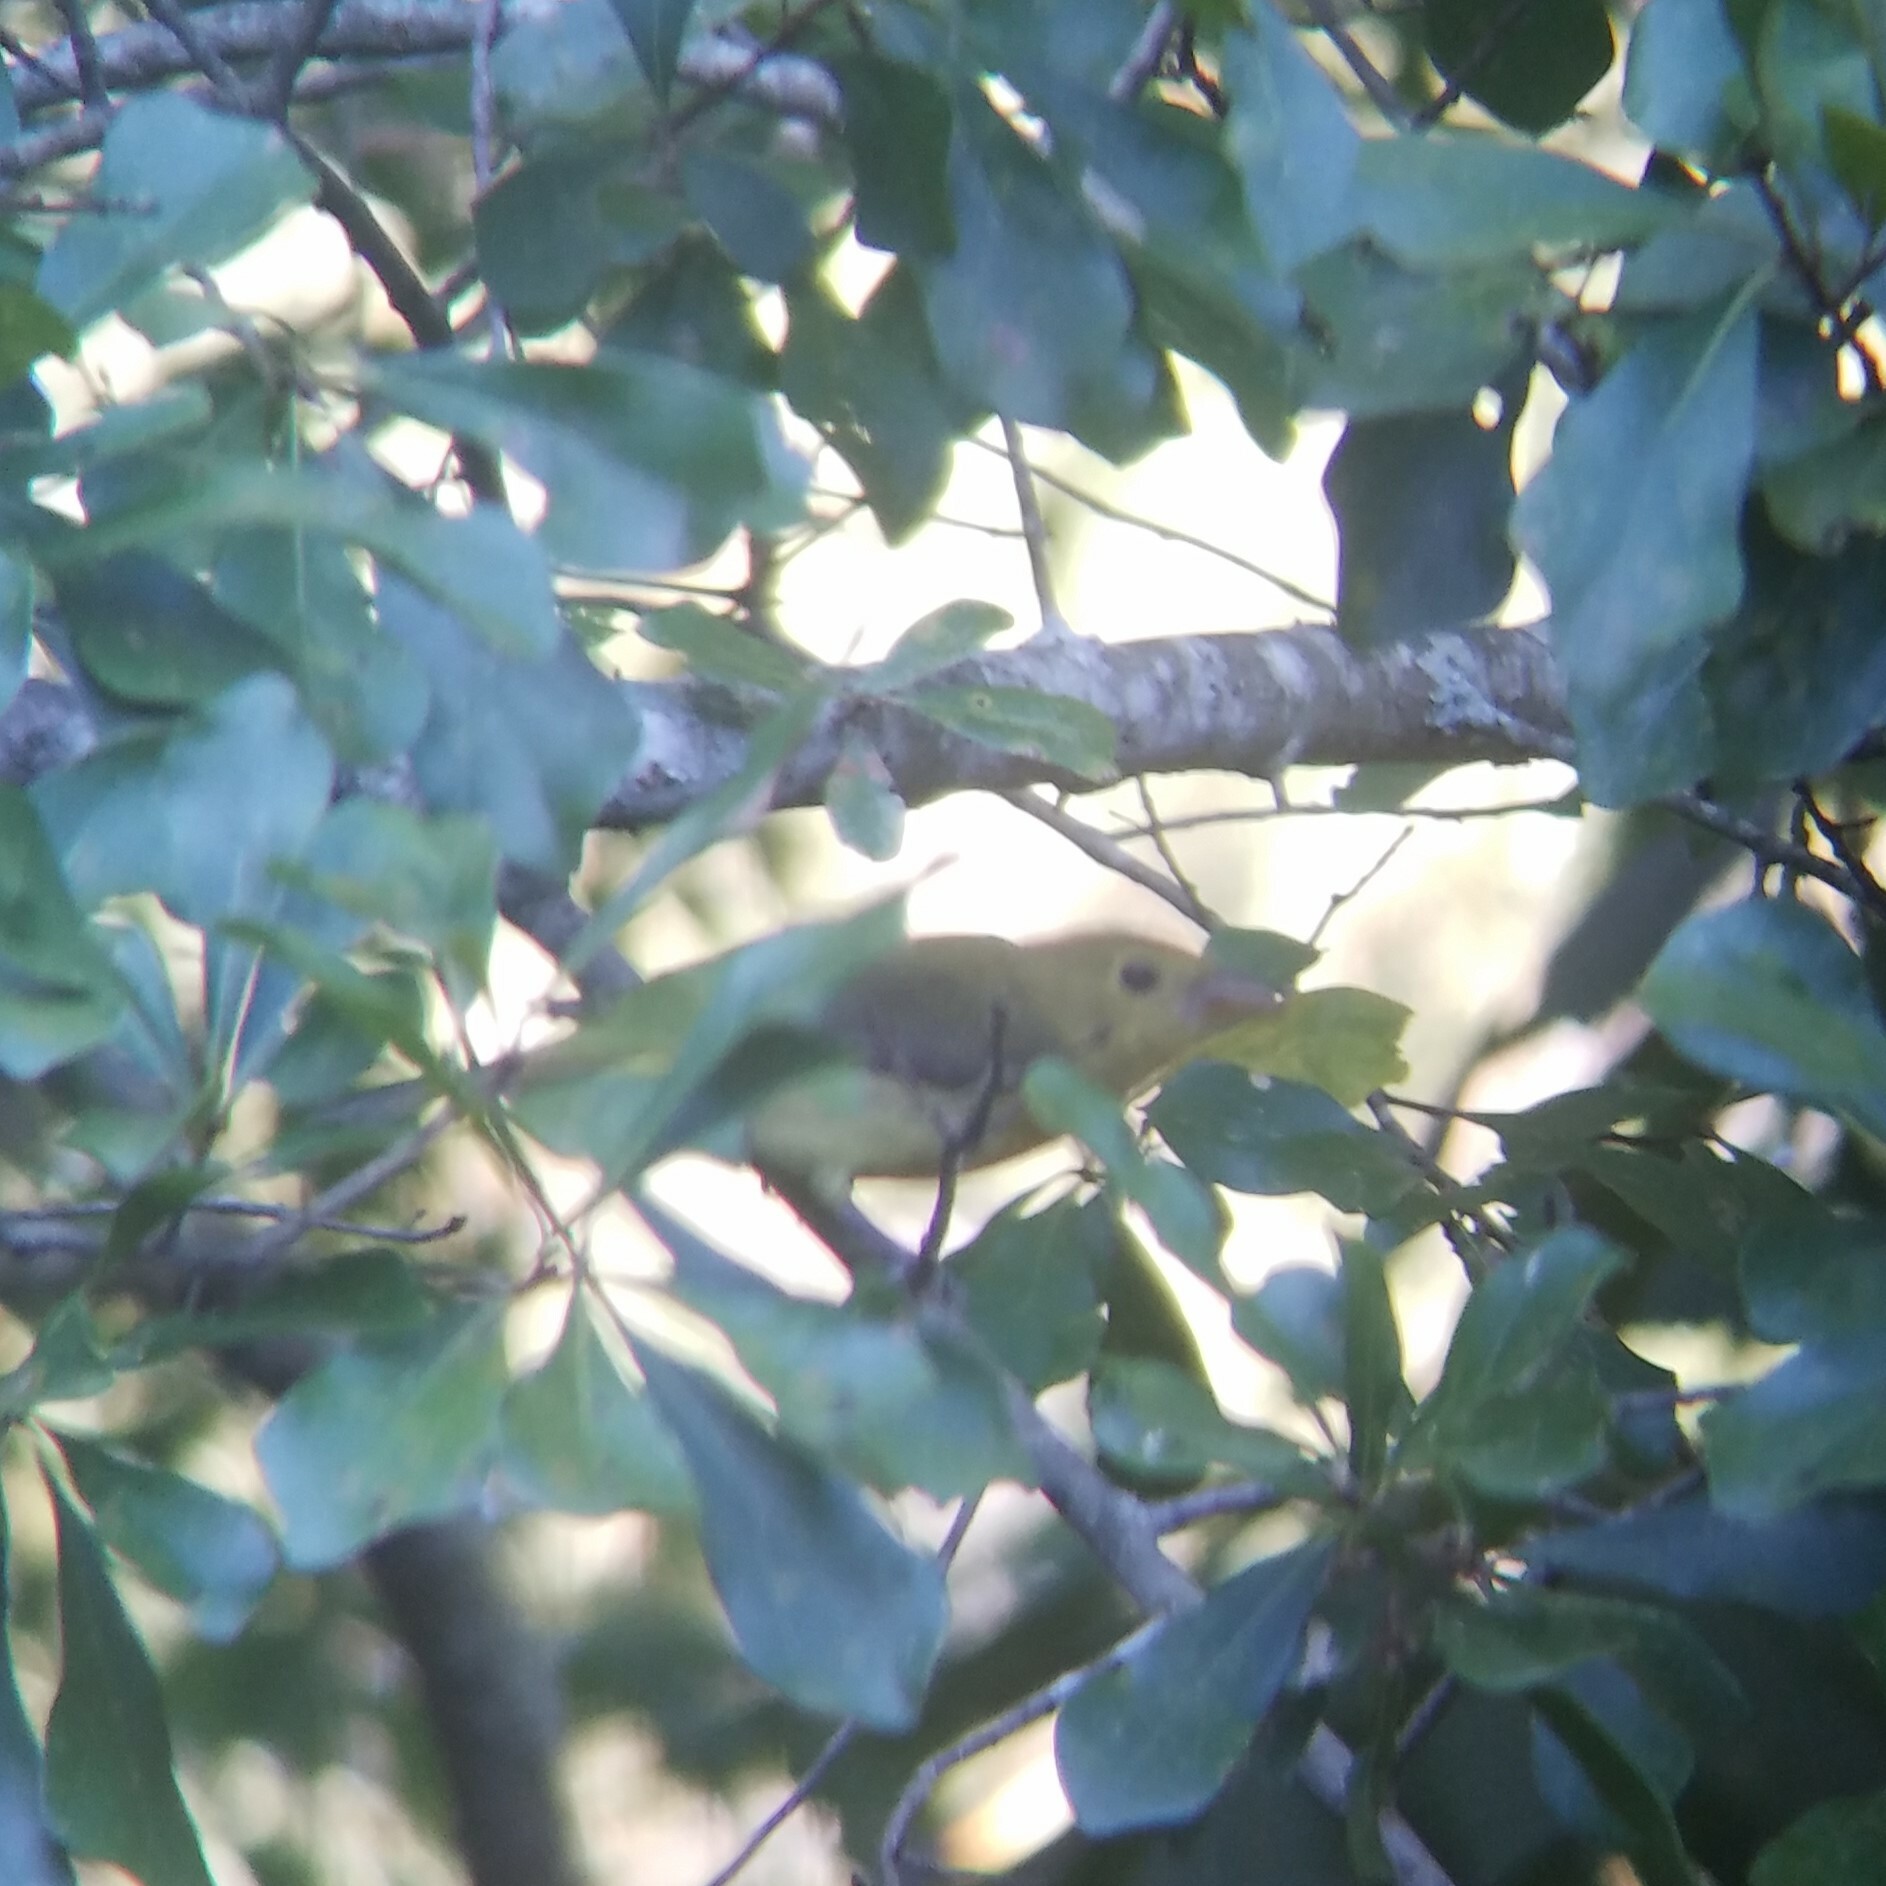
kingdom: Animalia
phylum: Chordata
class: Aves
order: Passeriformes
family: Cardinalidae
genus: Piranga
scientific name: Piranga olivacea
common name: Scarlet tanager
